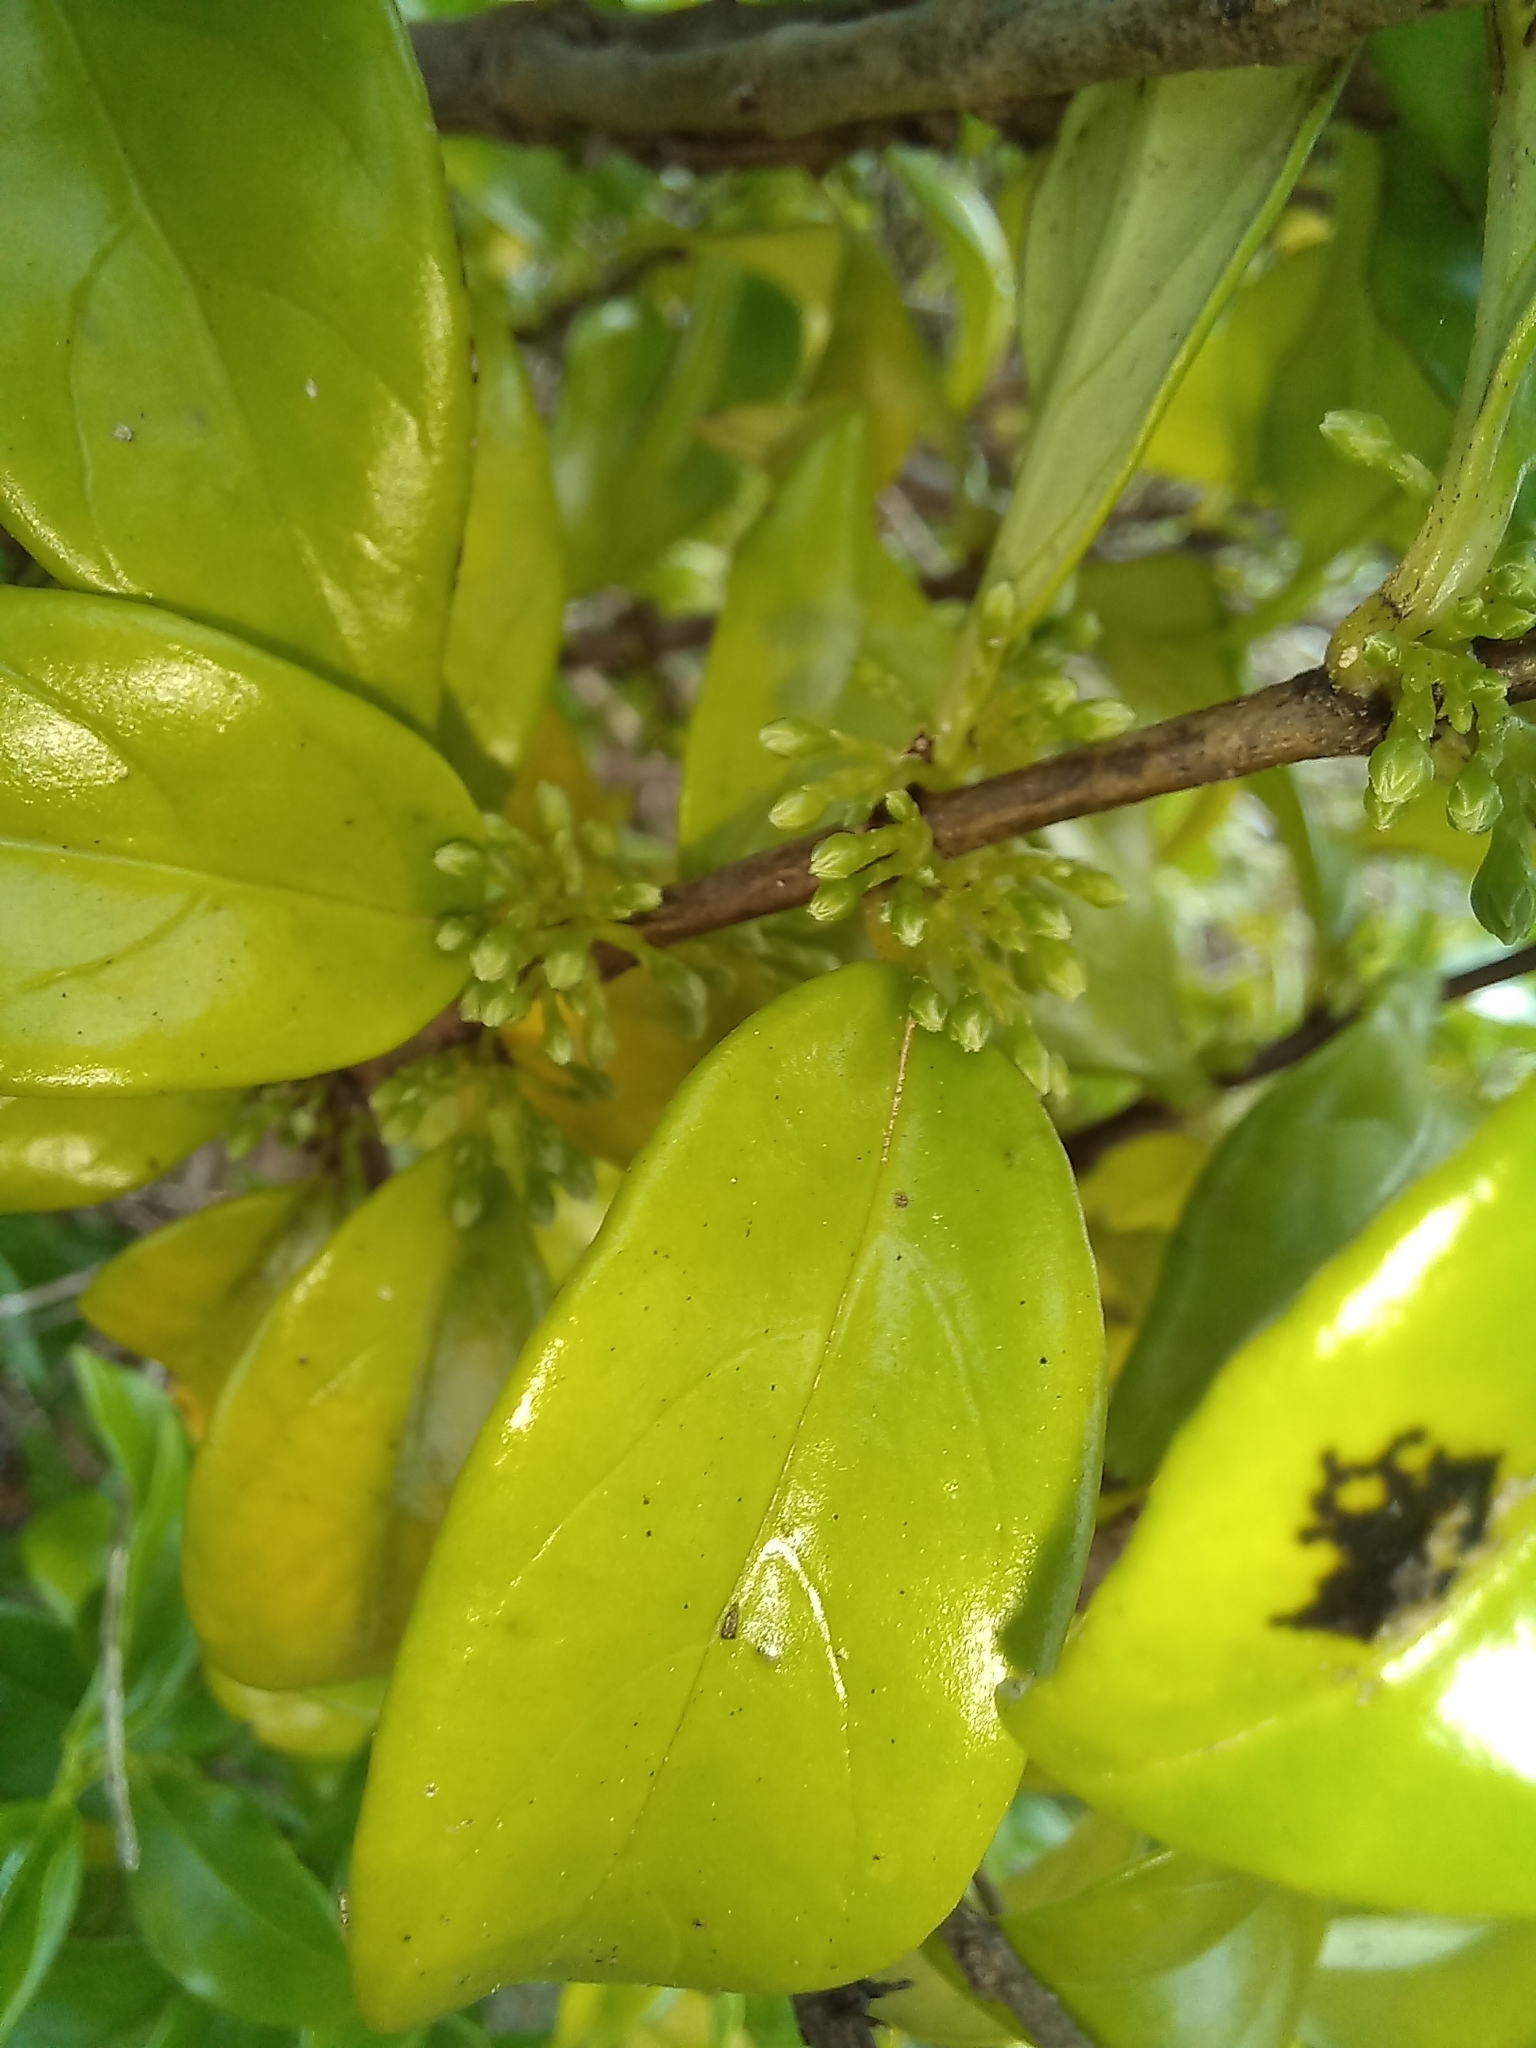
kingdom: Plantae
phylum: Tracheophyta
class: Magnoliopsida
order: Gentianales
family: Loganiaceae
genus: Geniostoma
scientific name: Geniostoma ligustrifolium
